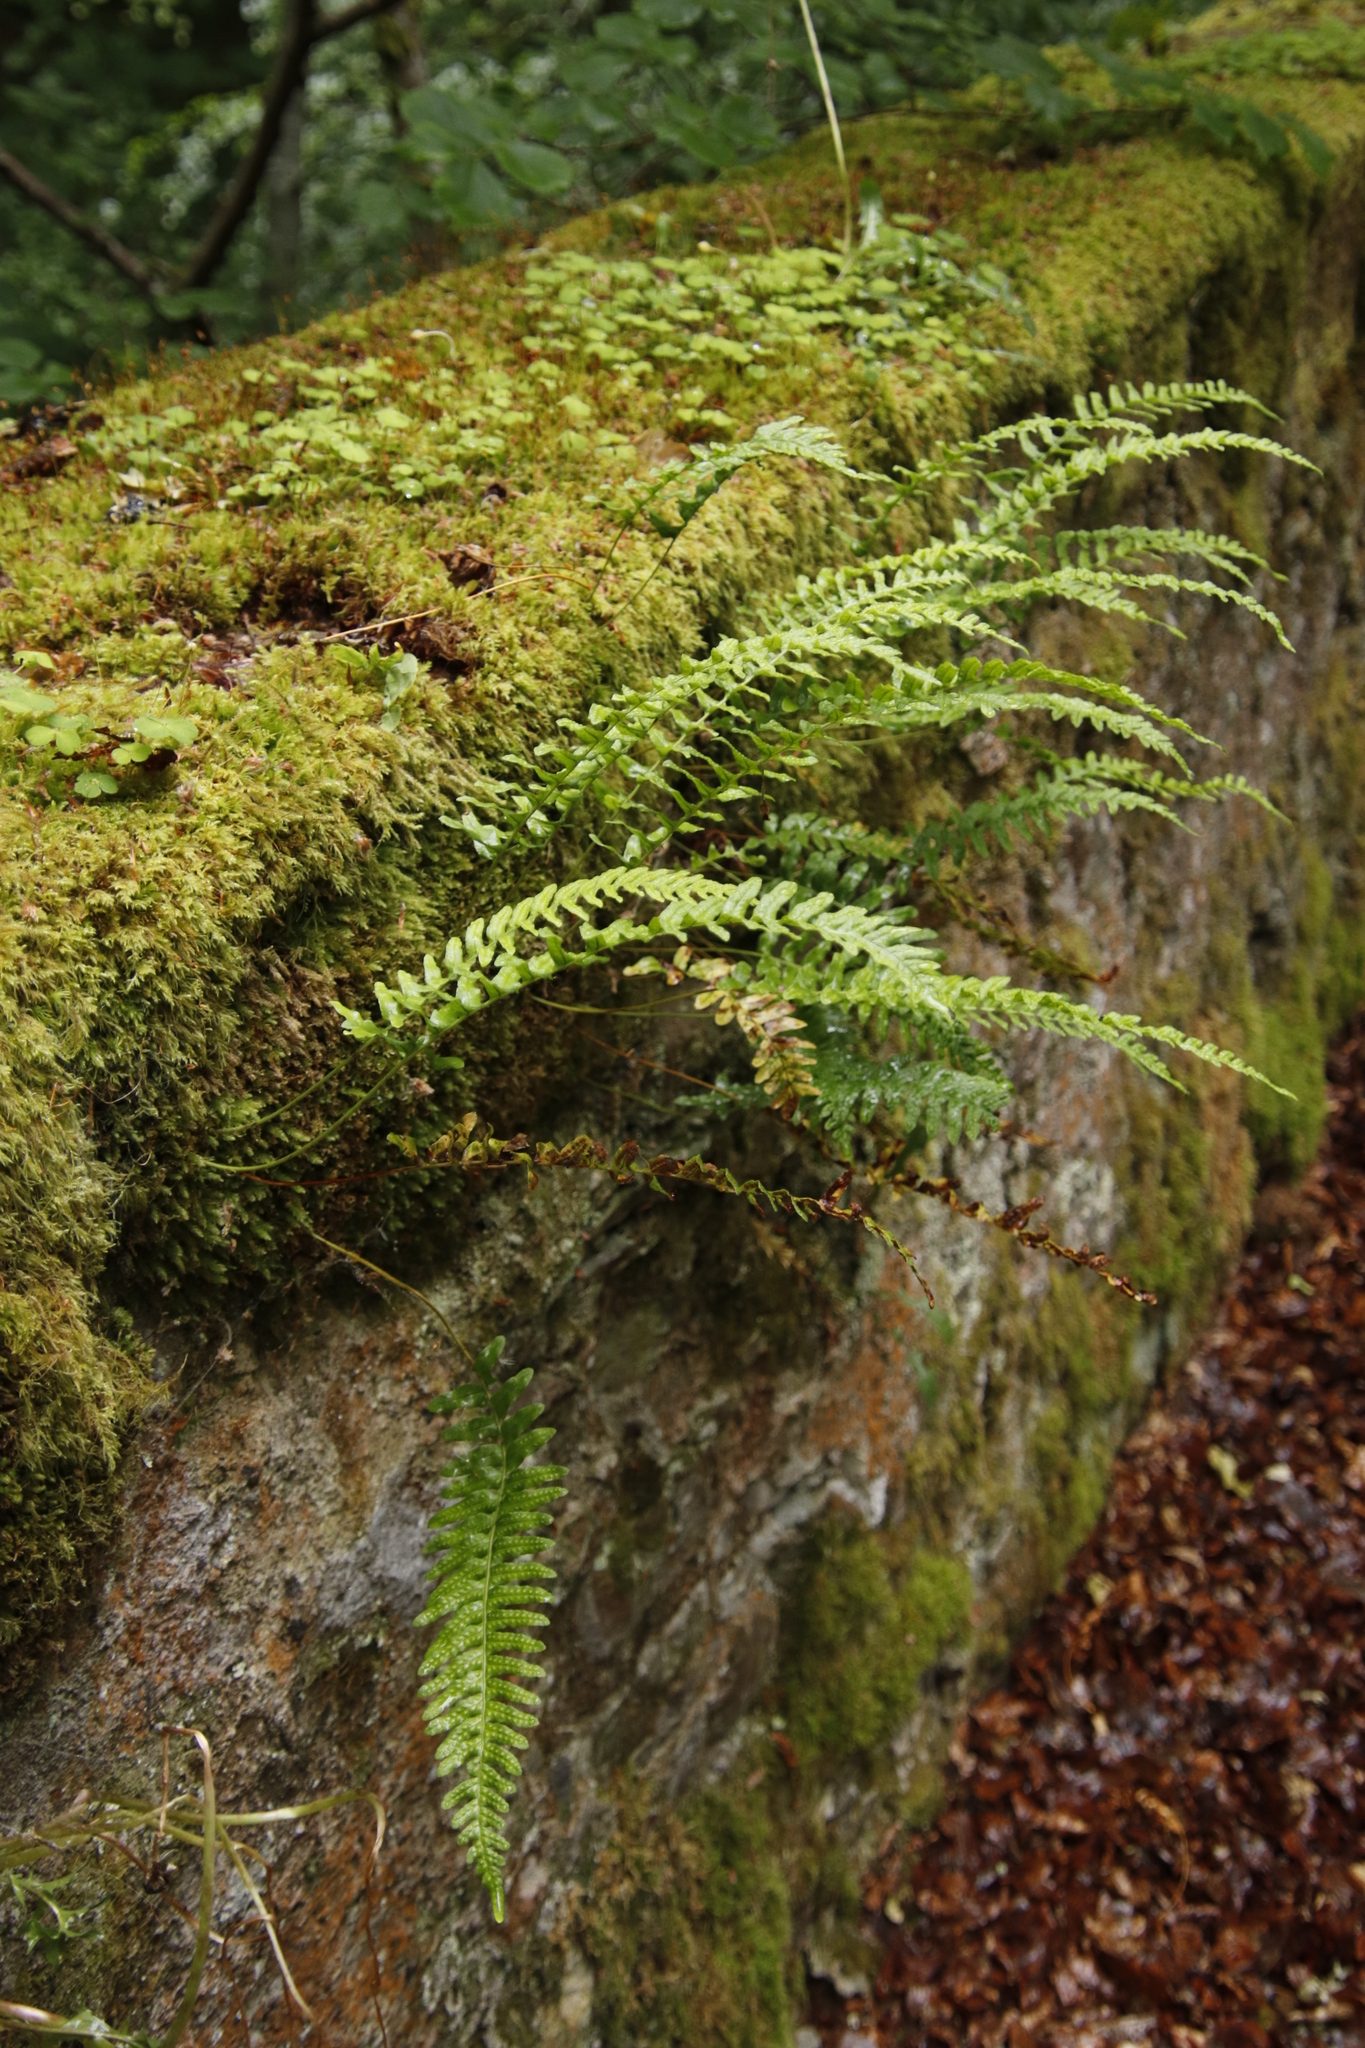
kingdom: Plantae
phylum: Tracheophyta
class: Polypodiopsida
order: Polypodiales
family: Polypodiaceae
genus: Polypodium
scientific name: Polypodium vulgare
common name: Common polypody
